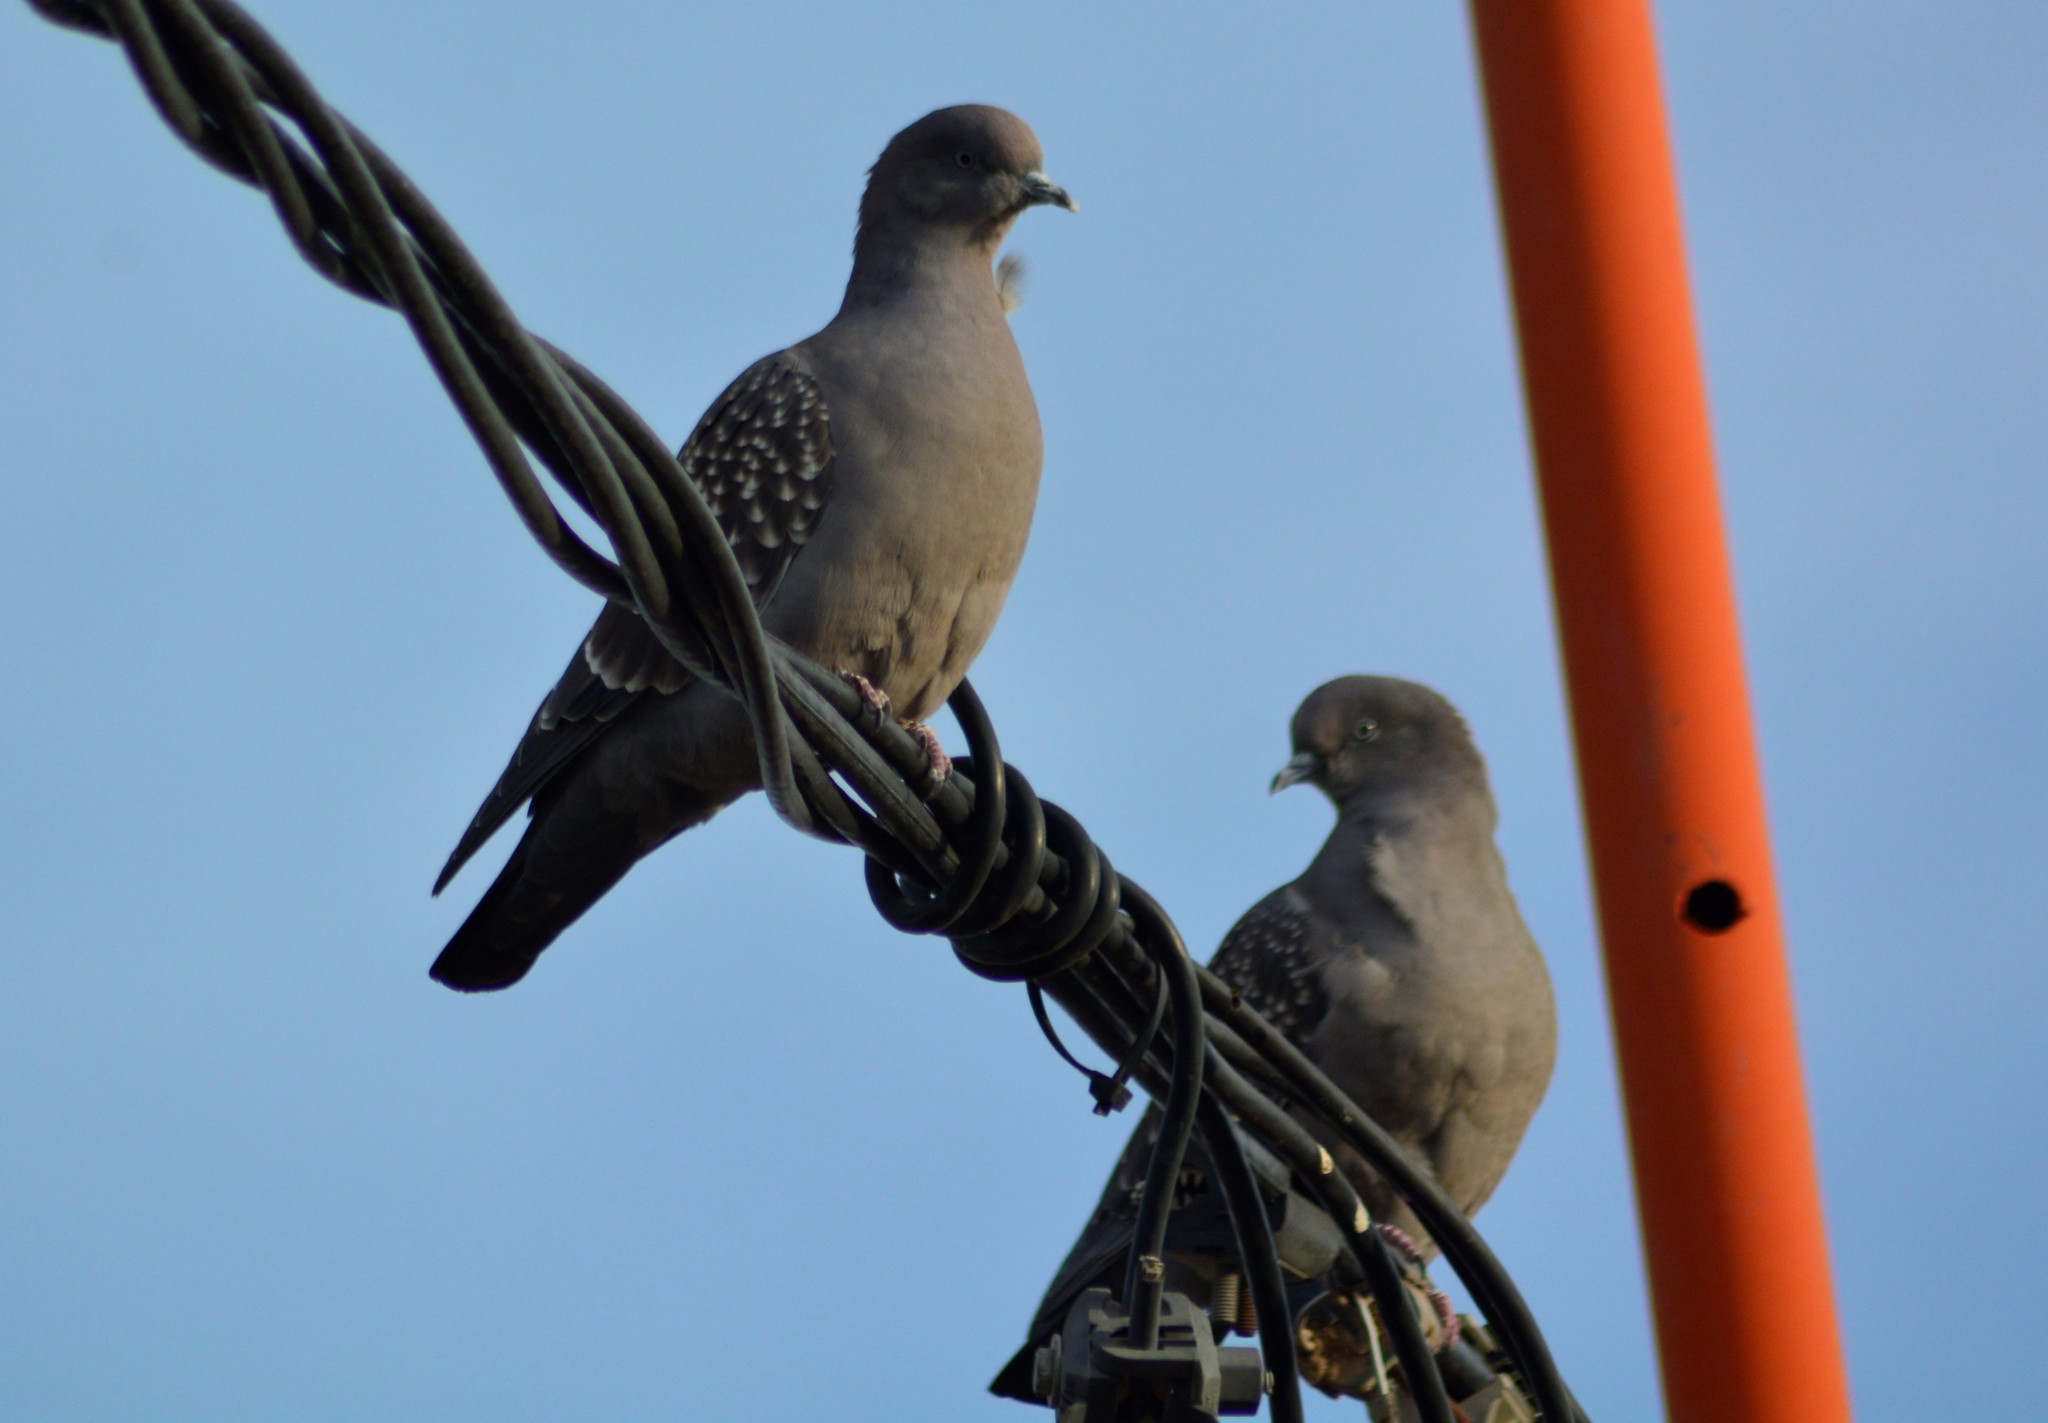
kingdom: Animalia
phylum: Chordata
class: Aves
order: Columbiformes
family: Columbidae
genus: Patagioenas
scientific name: Patagioenas maculosa
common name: Spot-winged pigeon
